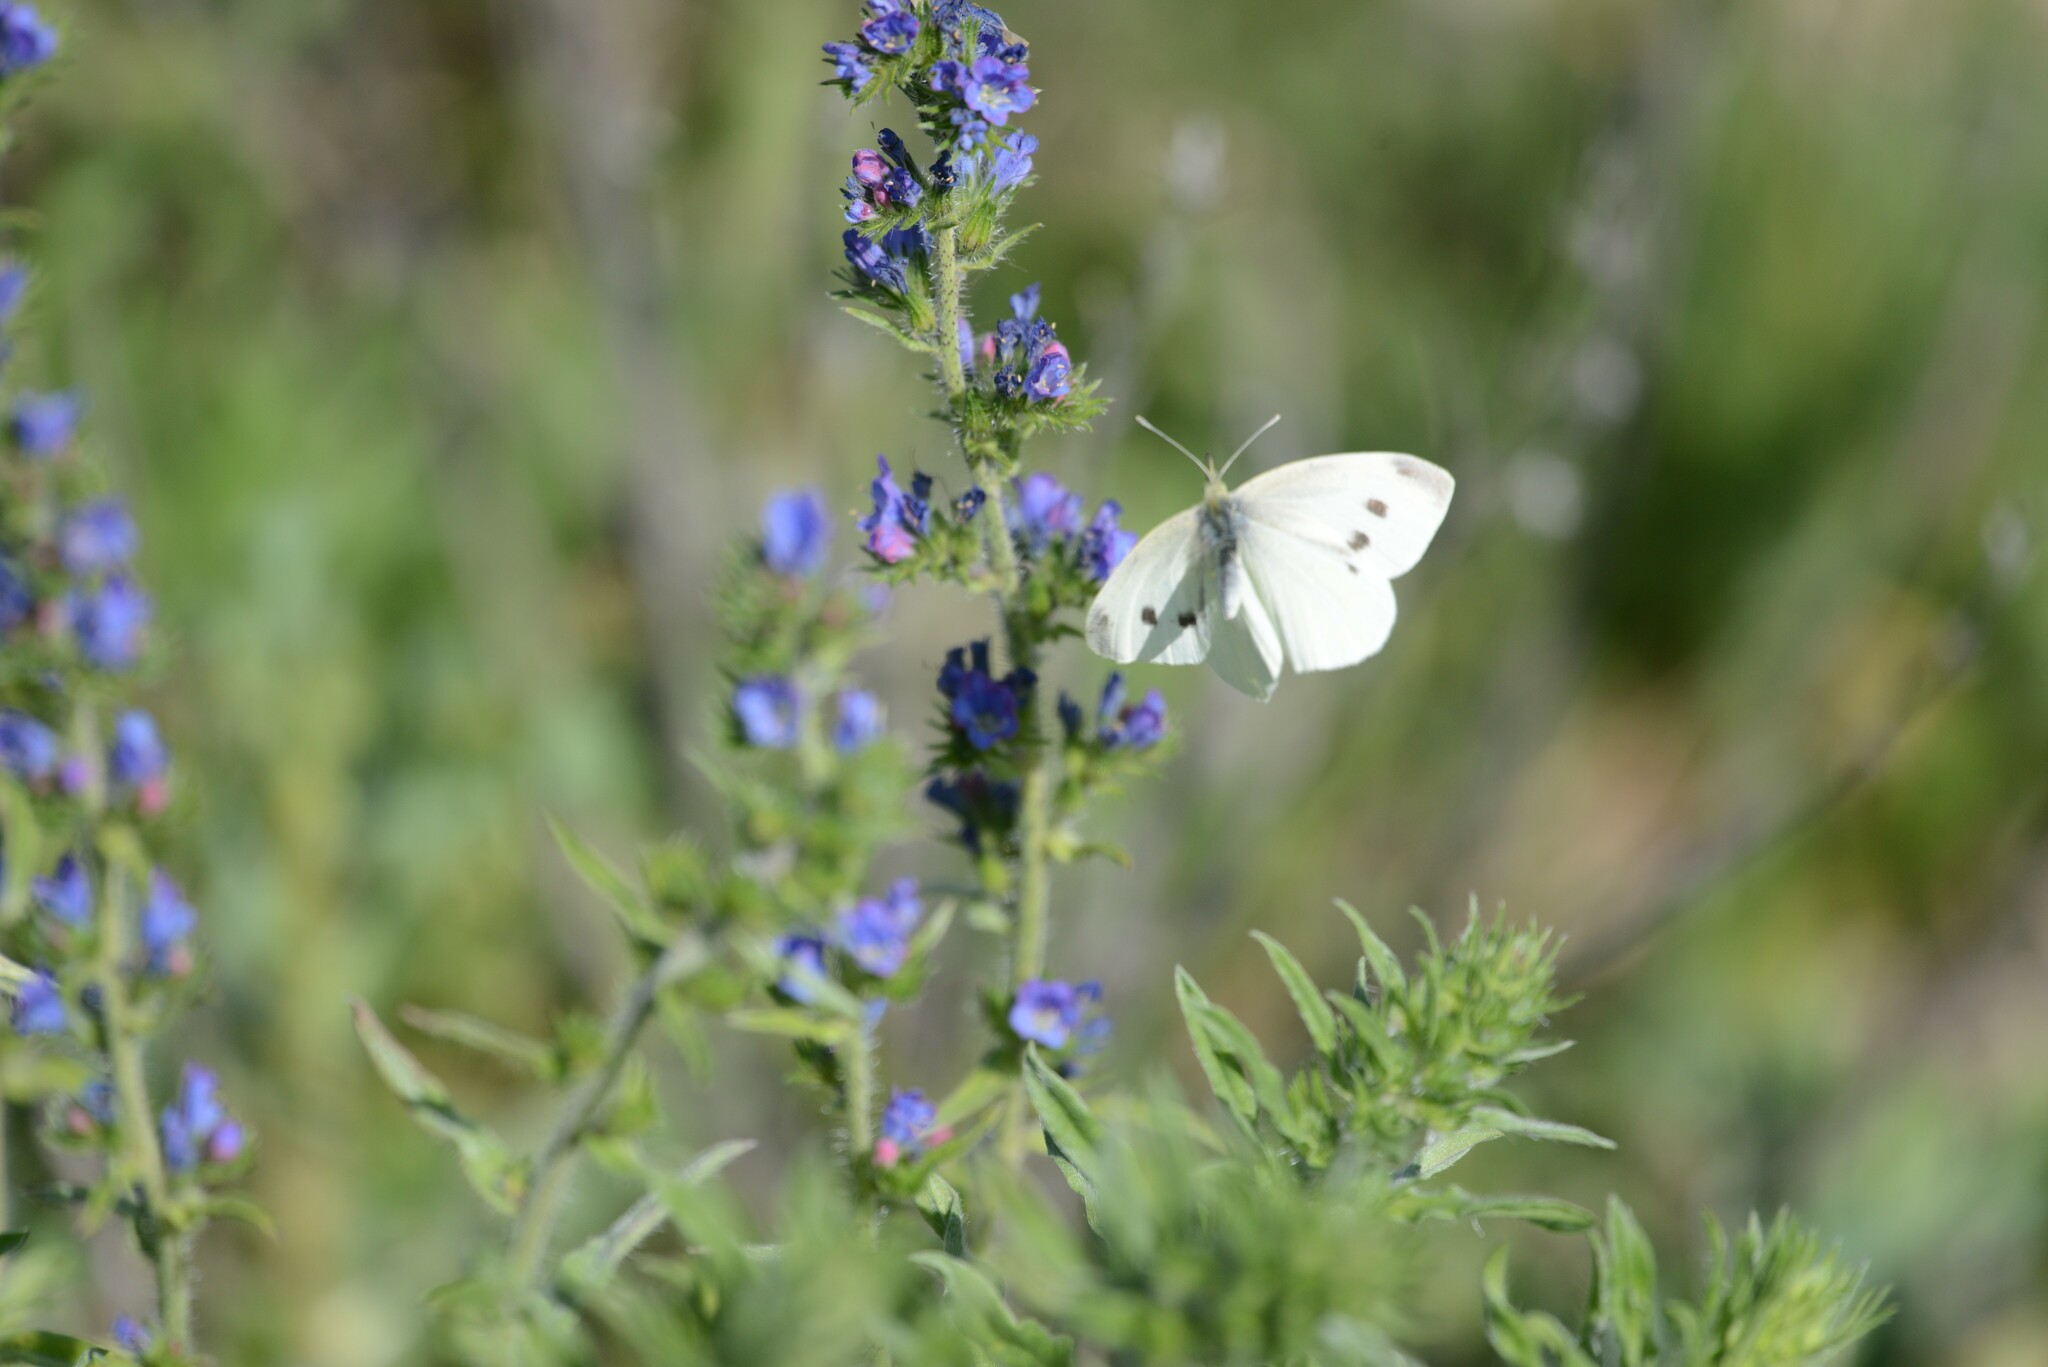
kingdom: Animalia
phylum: Arthropoda
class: Insecta
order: Lepidoptera
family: Pieridae
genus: Pieris
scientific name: Pieris rapae
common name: Small white
